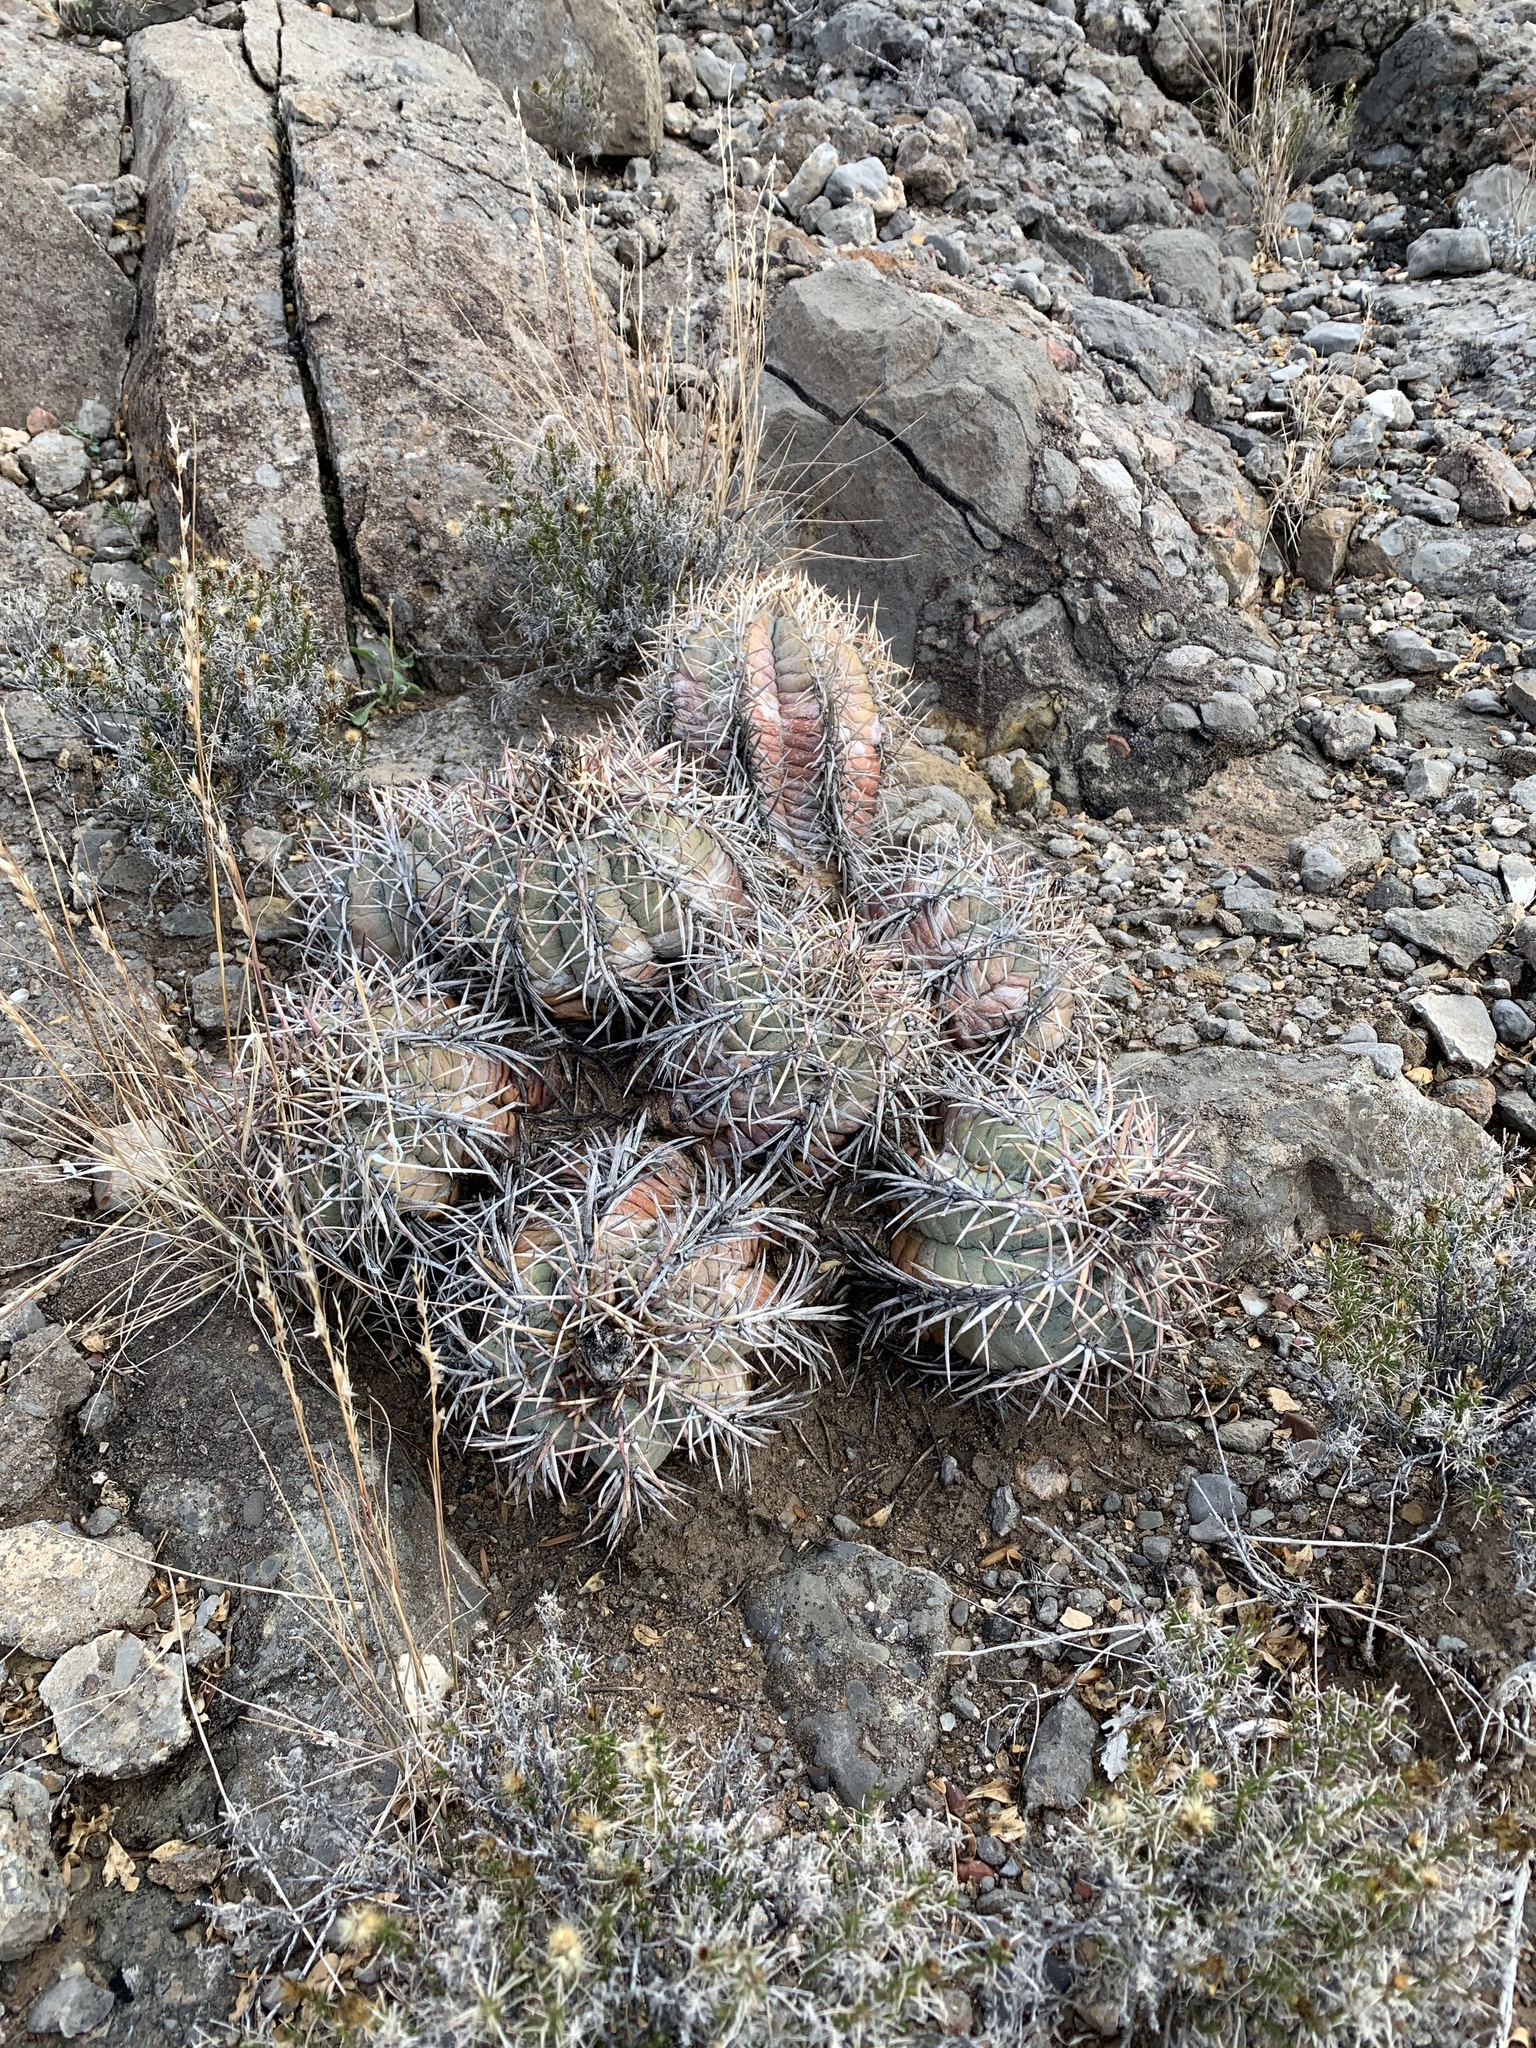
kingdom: Plantae
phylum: Tracheophyta
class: Magnoliopsida
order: Caryophyllales
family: Cactaceae
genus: Echinocactus
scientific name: Echinocactus horizonthalonius
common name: Devilshead
